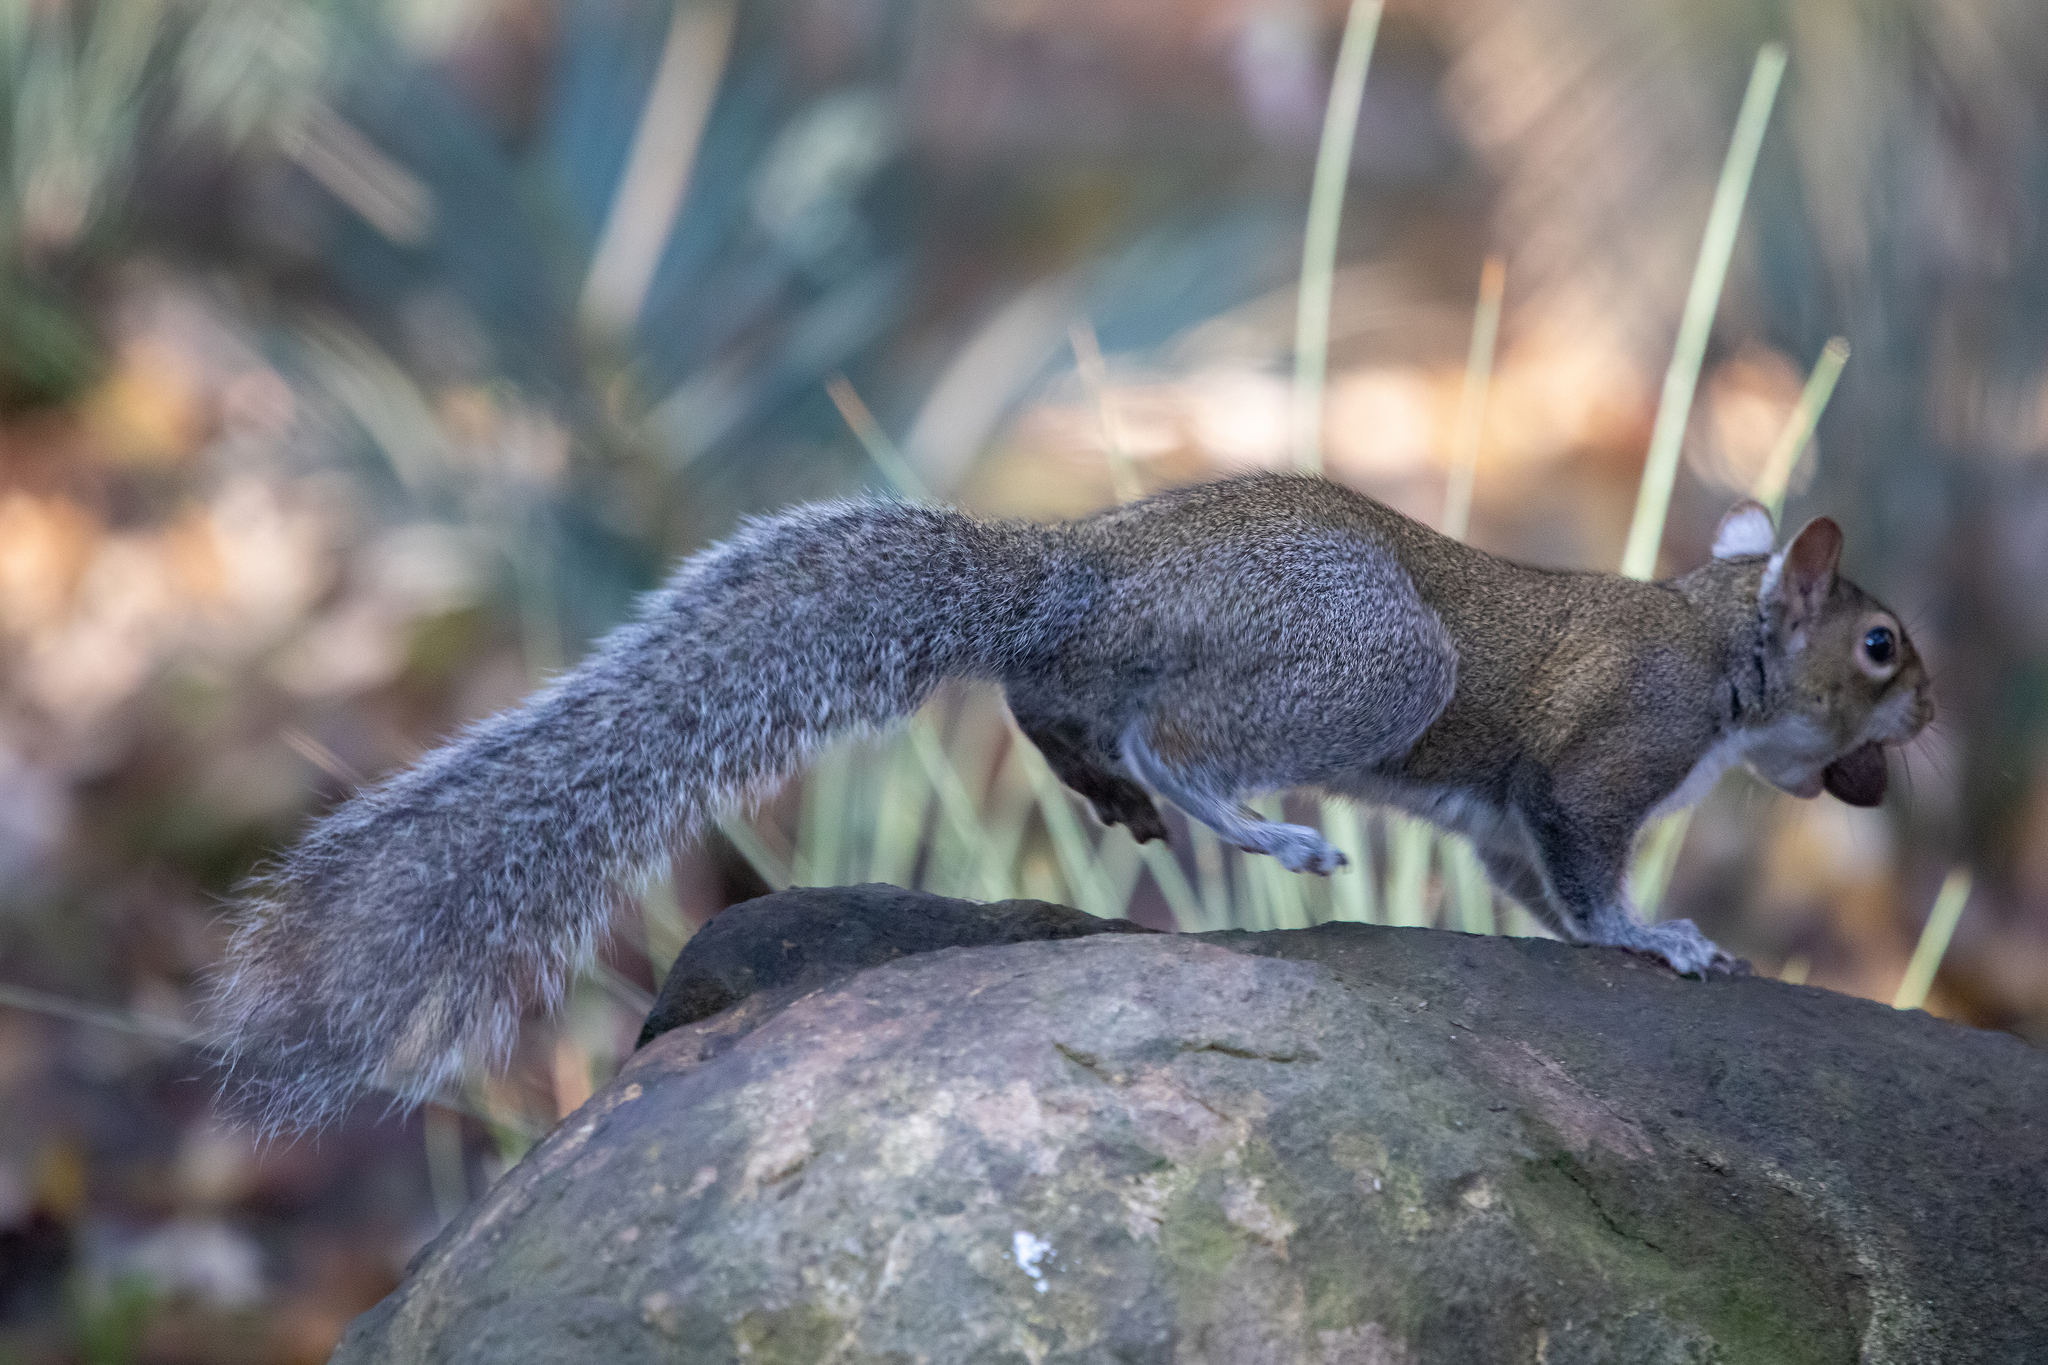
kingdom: Animalia
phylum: Chordata
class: Mammalia
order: Rodentia
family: Sciuridae
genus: Sciurus
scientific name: Sciurus carolinensis
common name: Eastern gray squirrel
